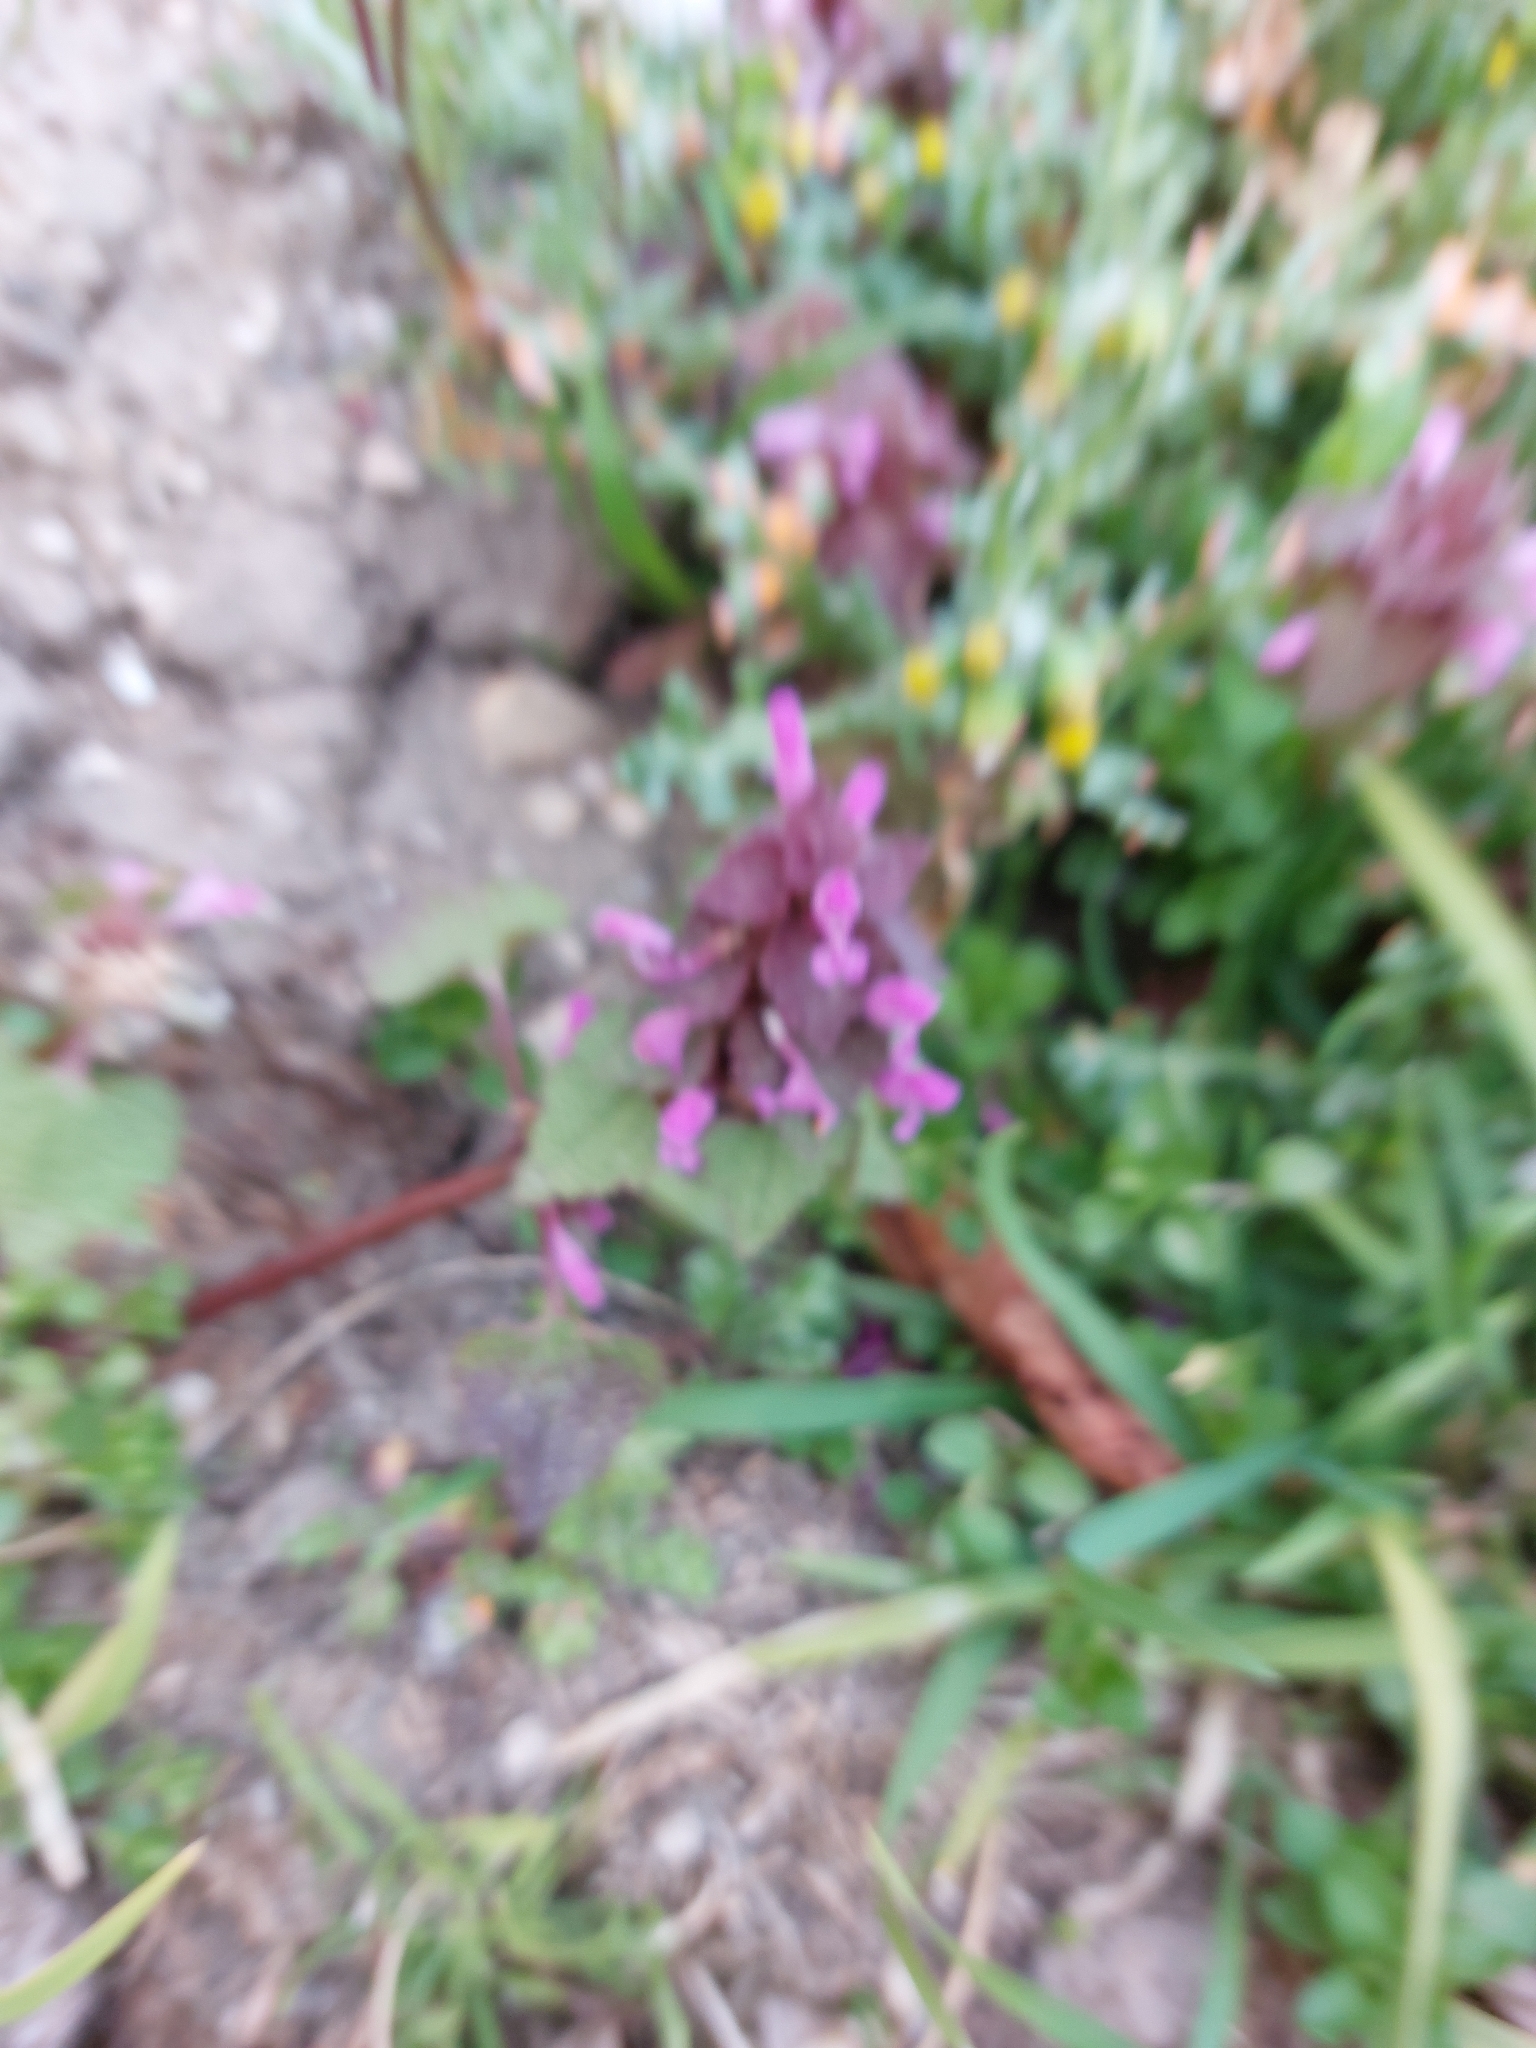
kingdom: Plantae
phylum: Tracheophyta
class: Magnoliopsida
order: Lamiales
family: Lamiaceae
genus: Lamium
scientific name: Lamium purpureum
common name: Red dead-nettle
